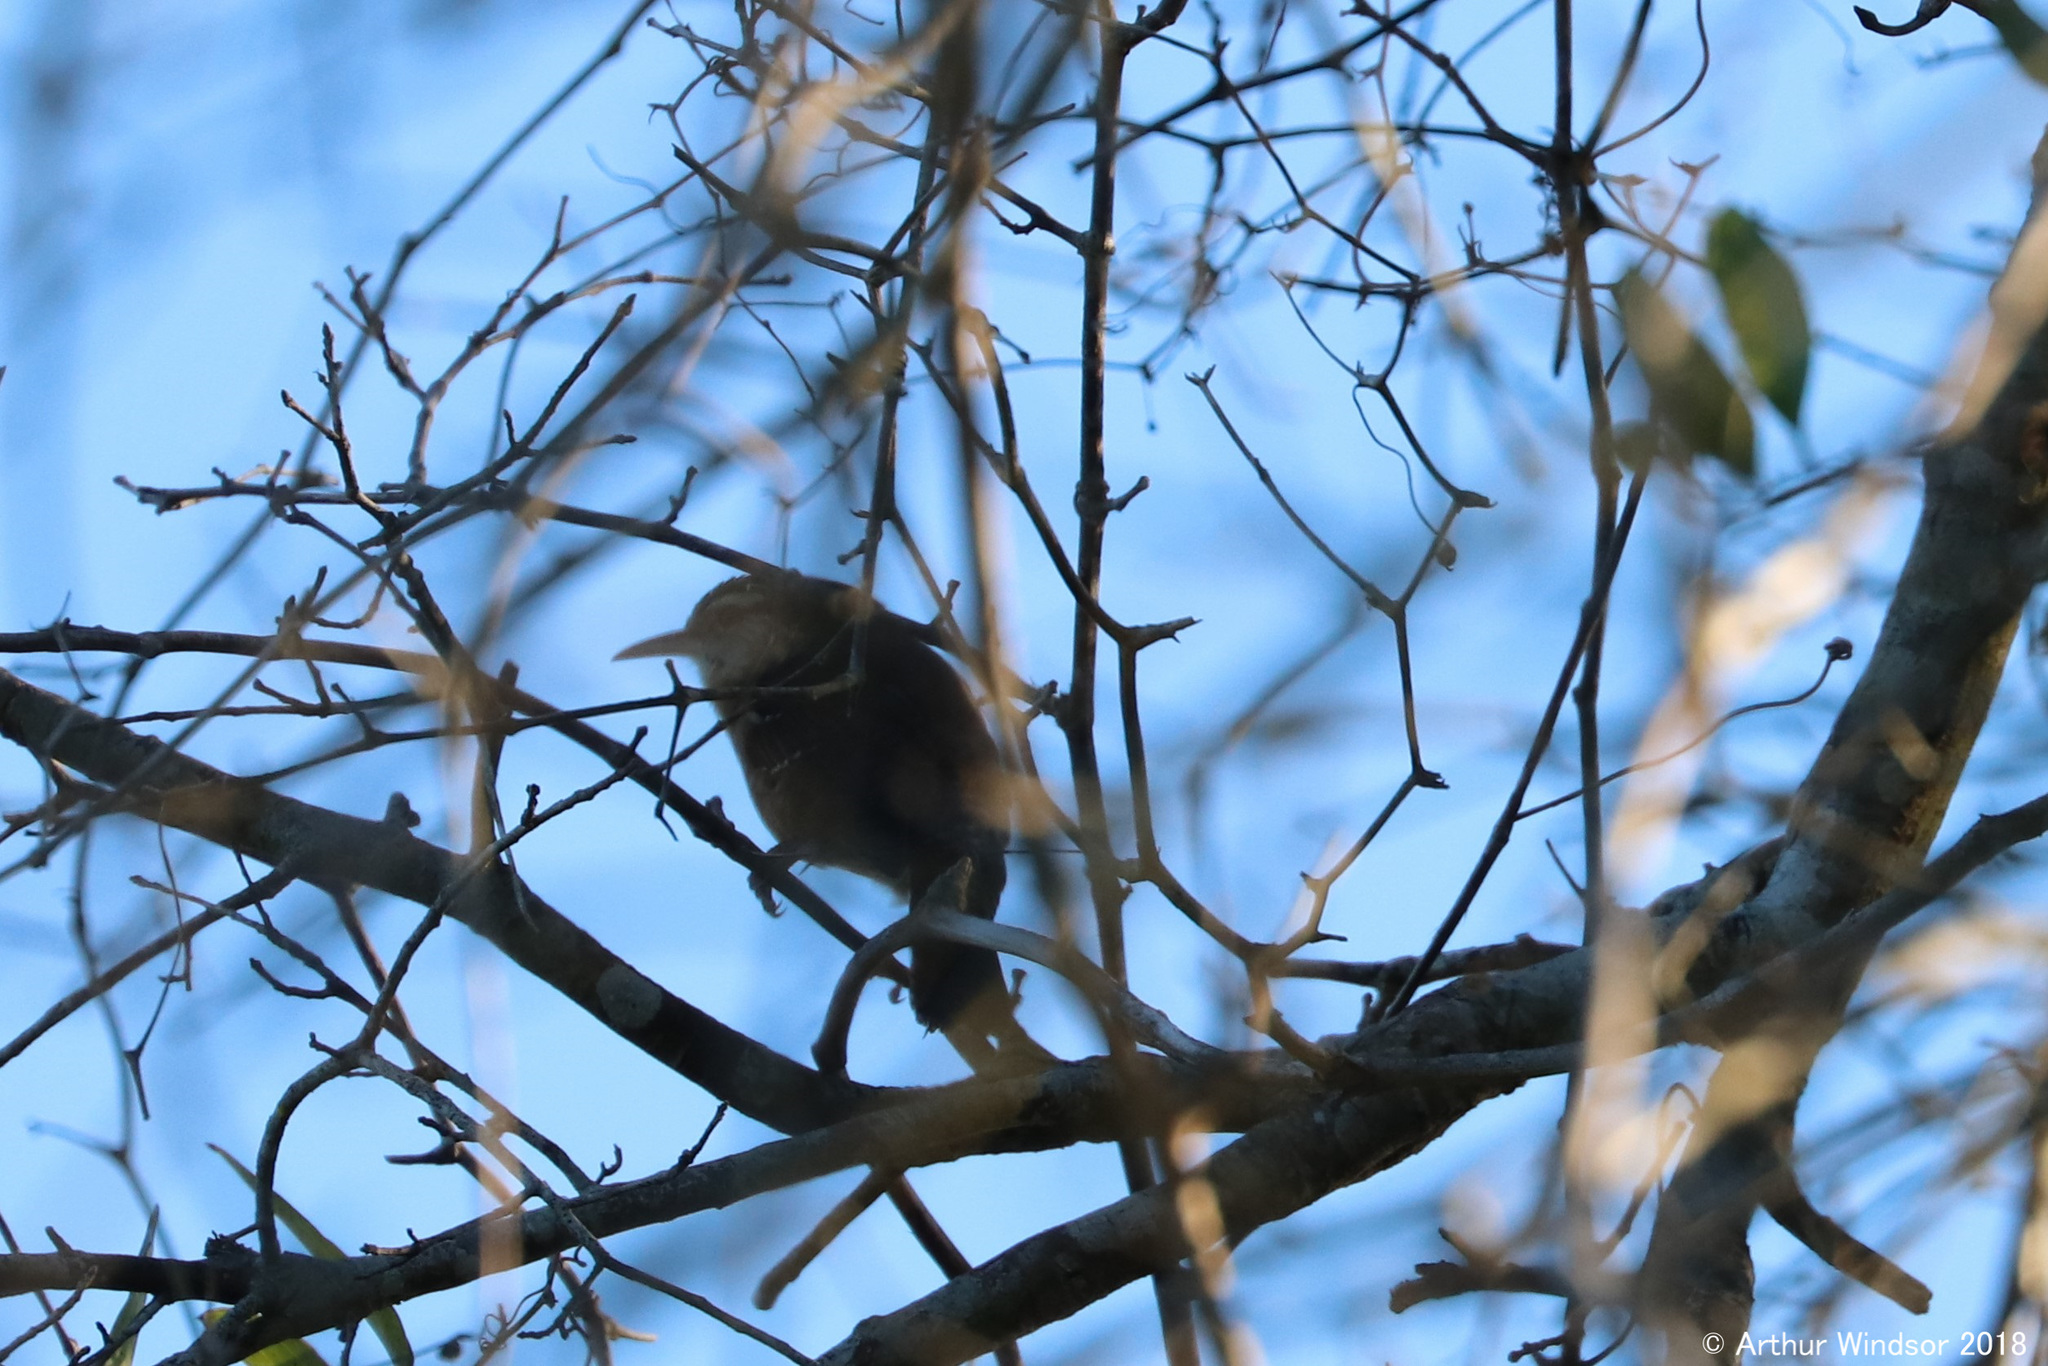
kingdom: Animalia
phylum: Chordata
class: Aves
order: Passeriformes
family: Troglodytidae
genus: Thryothorus
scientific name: Thryothorus ludovicianus
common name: Carolina wren
